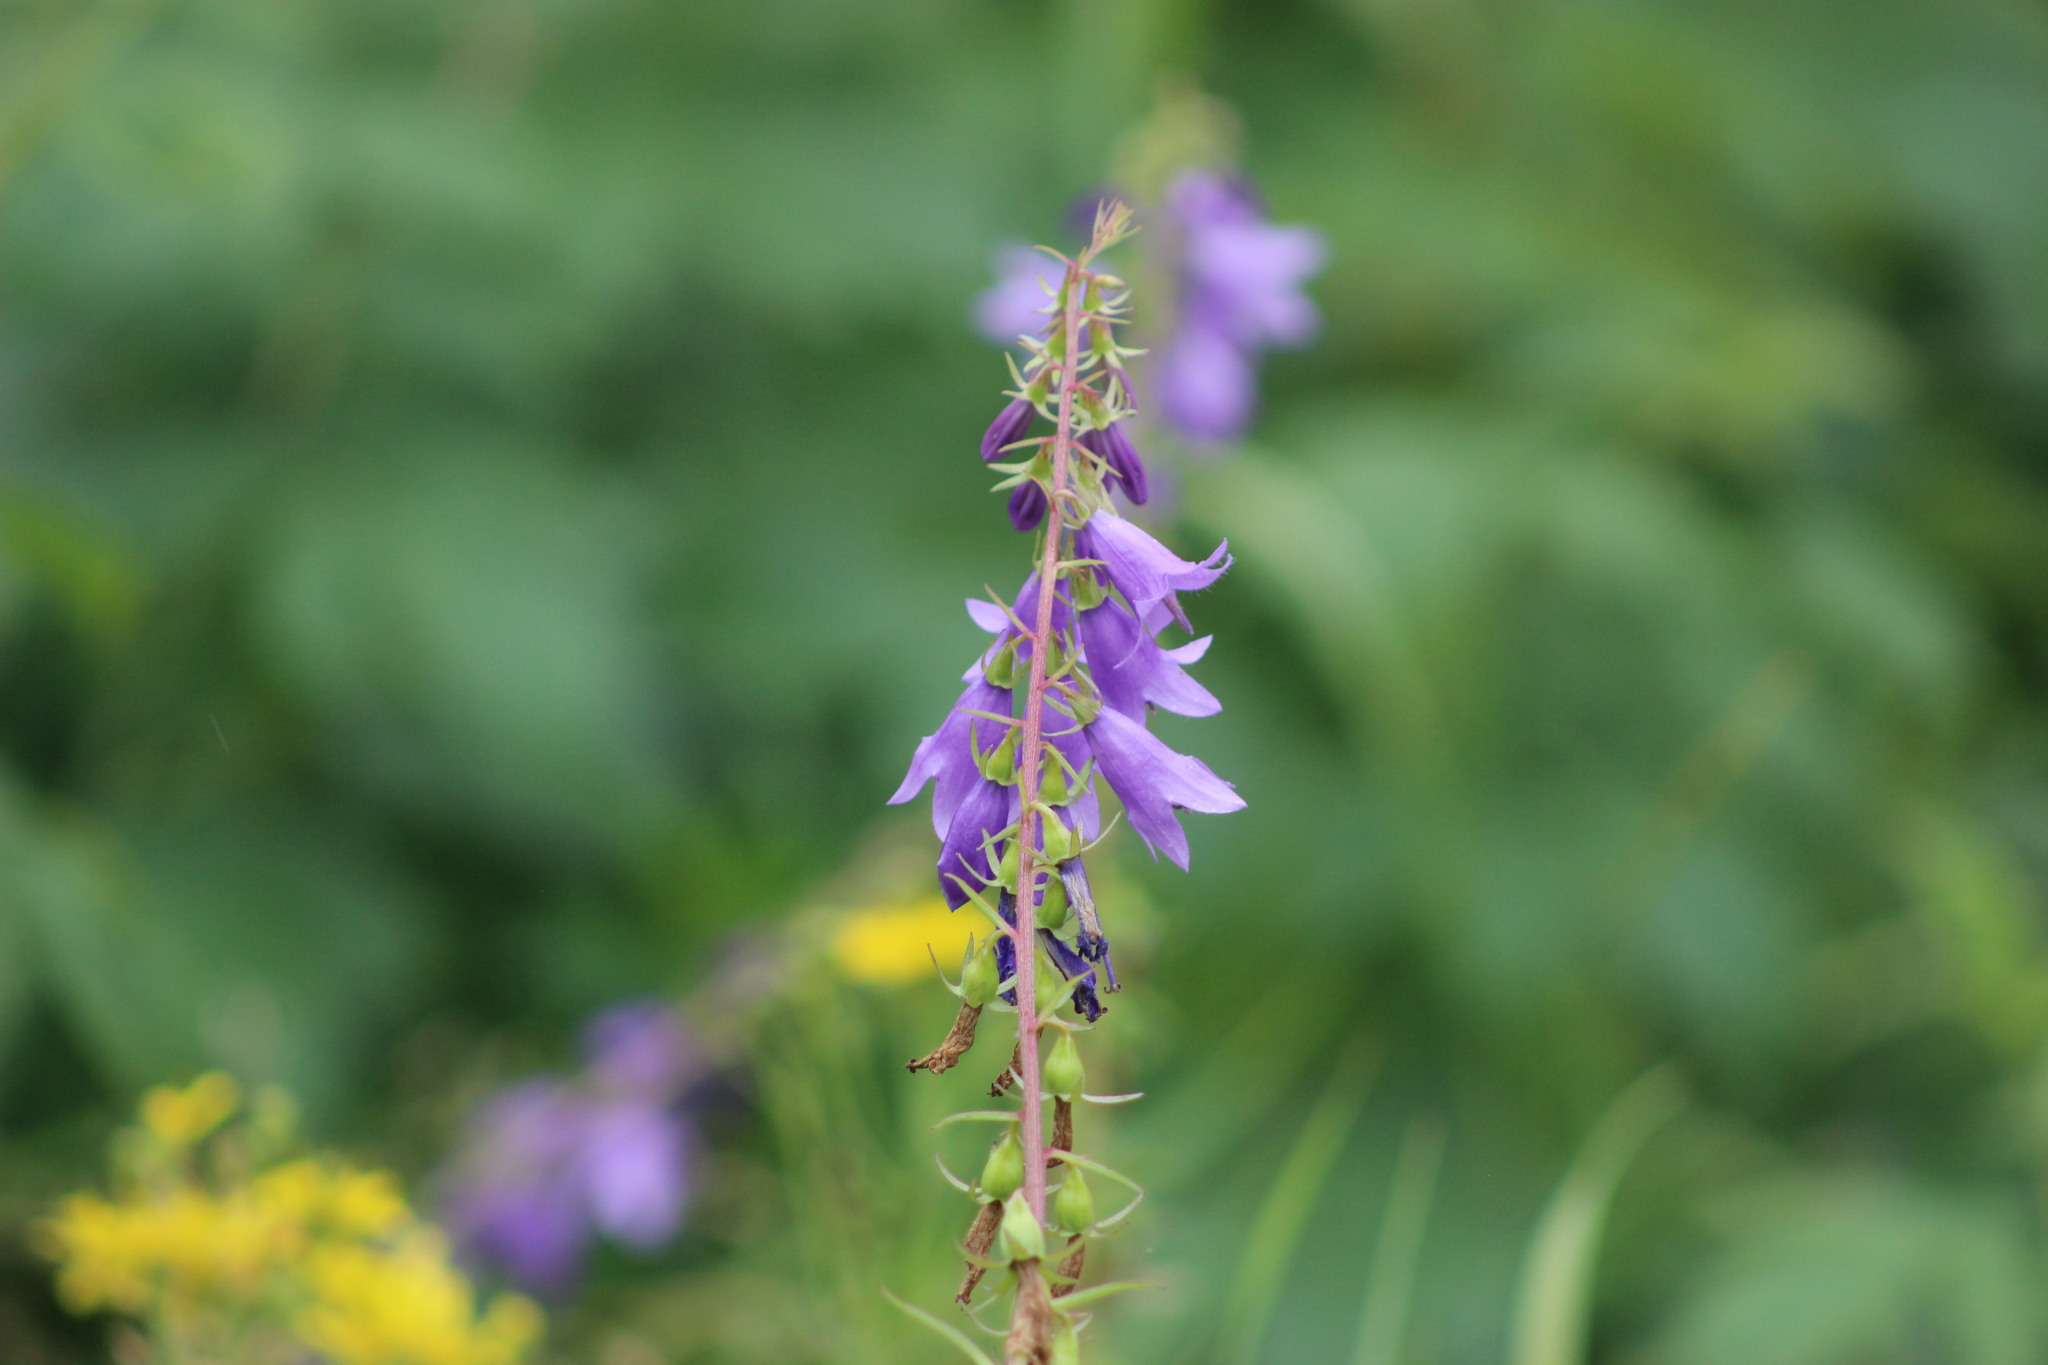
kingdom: Plantae
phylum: Tracheophyta
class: Magnoliopsida
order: Asterales
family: Campanulaceae
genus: Campanula
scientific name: Campanula rapunculoides
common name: Creeping bellflower
